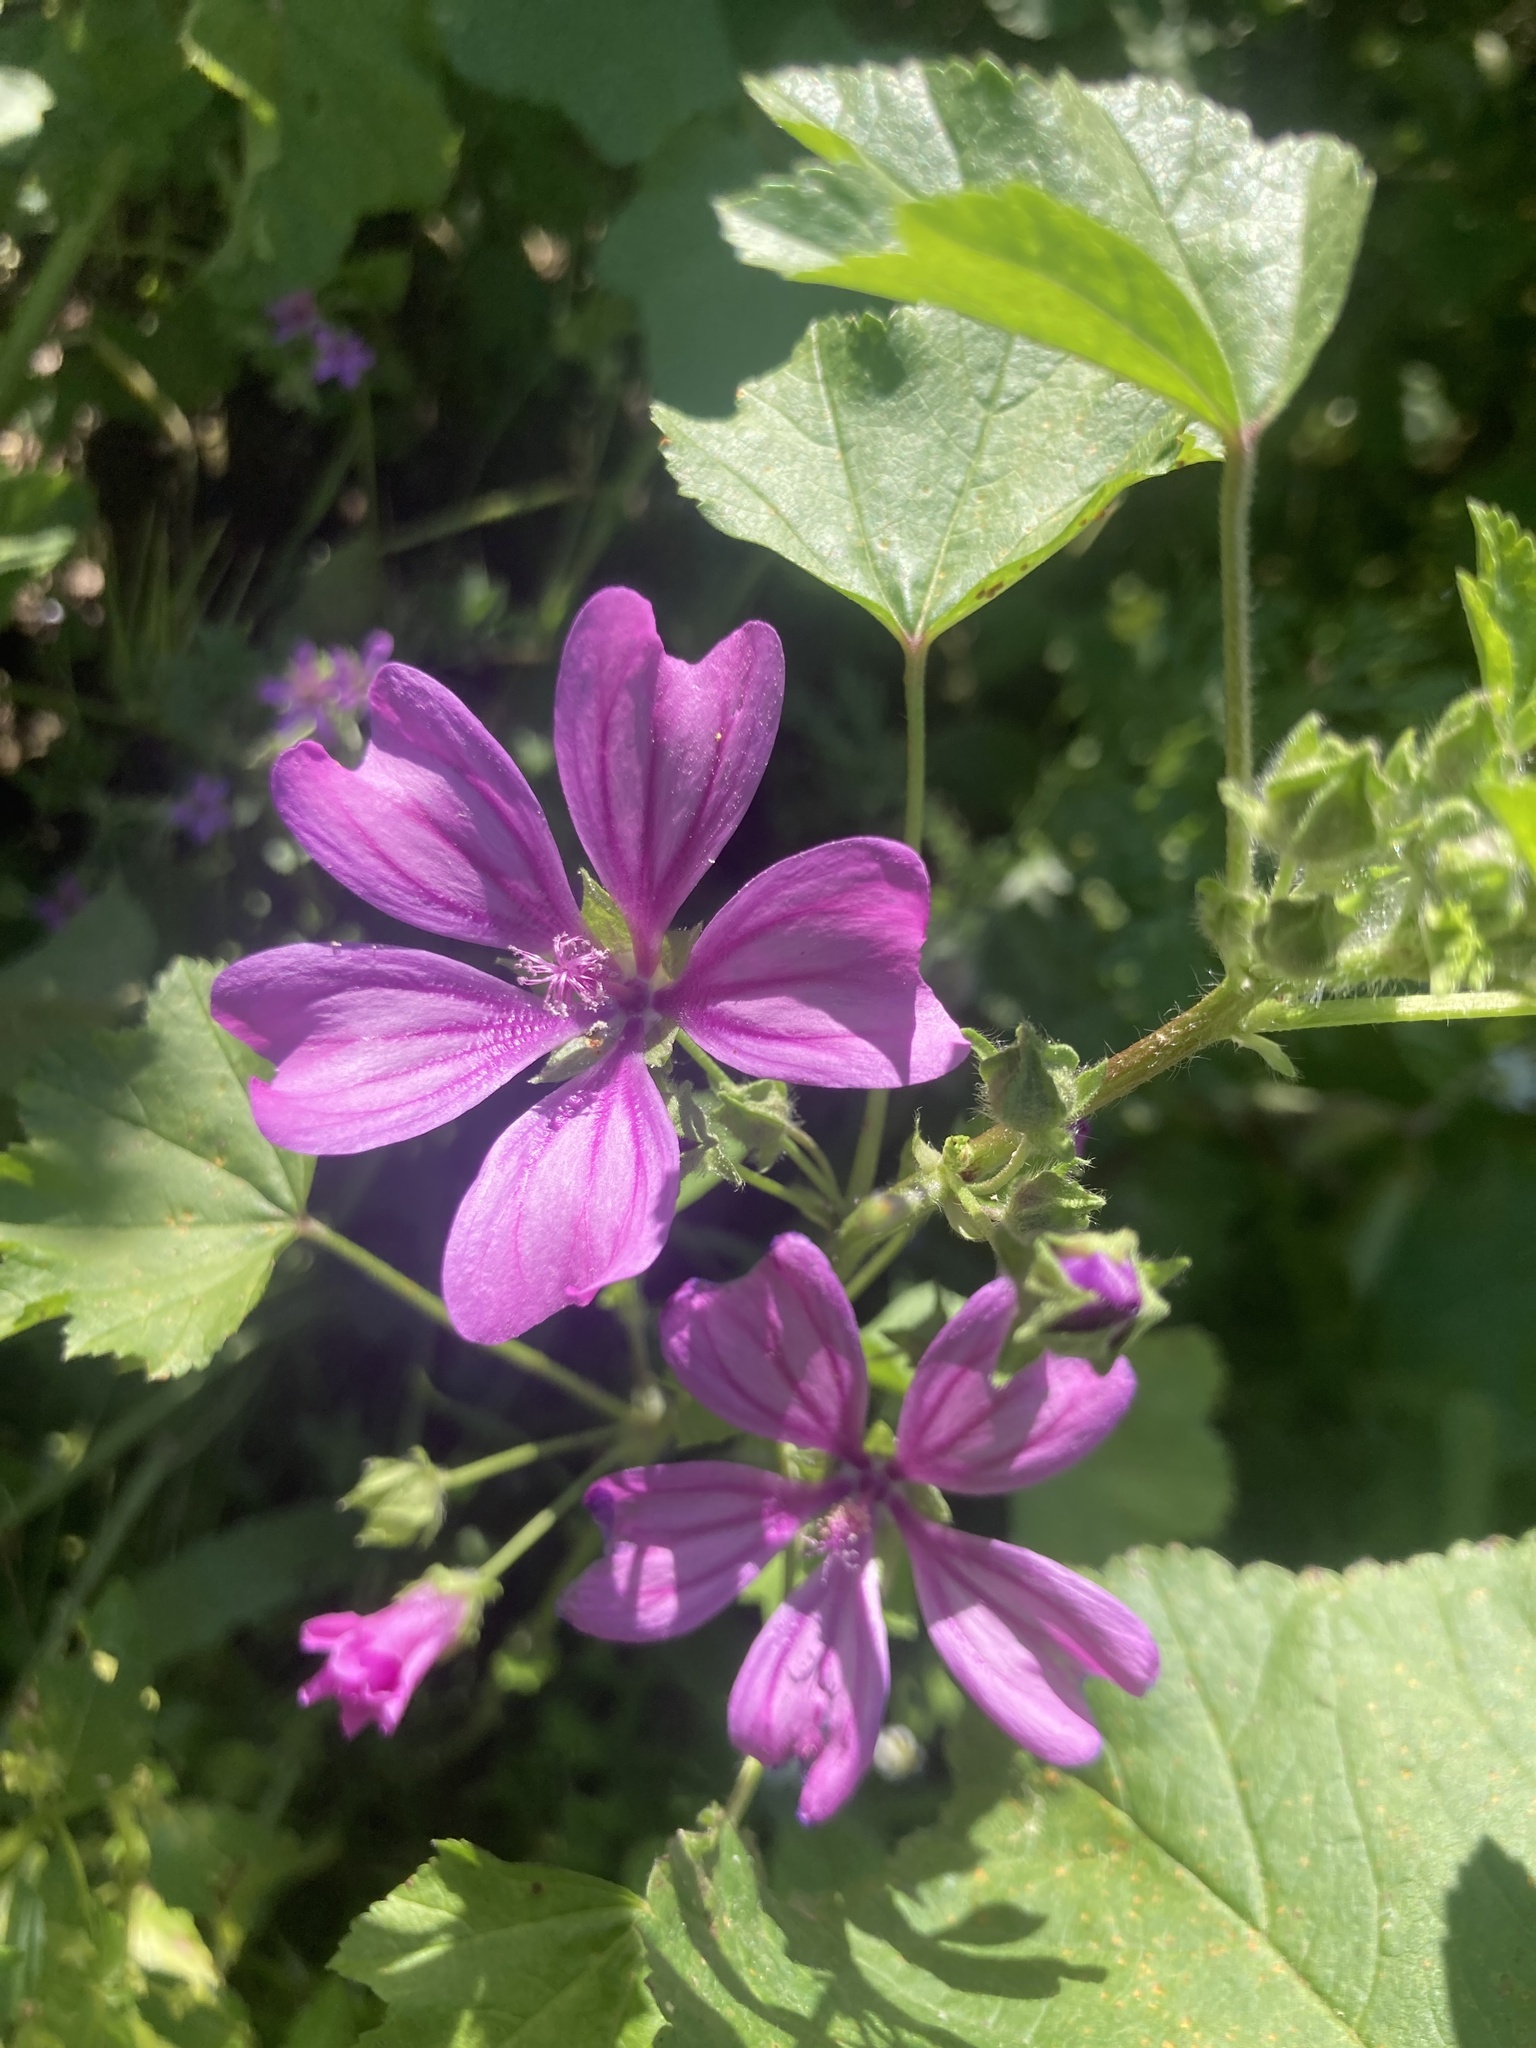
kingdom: Plantae
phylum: Tracheophyta
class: Magnoliopsida
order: Malvales
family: Malvaceae
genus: Malva
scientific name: Malva sylvestris
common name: Common mallow
